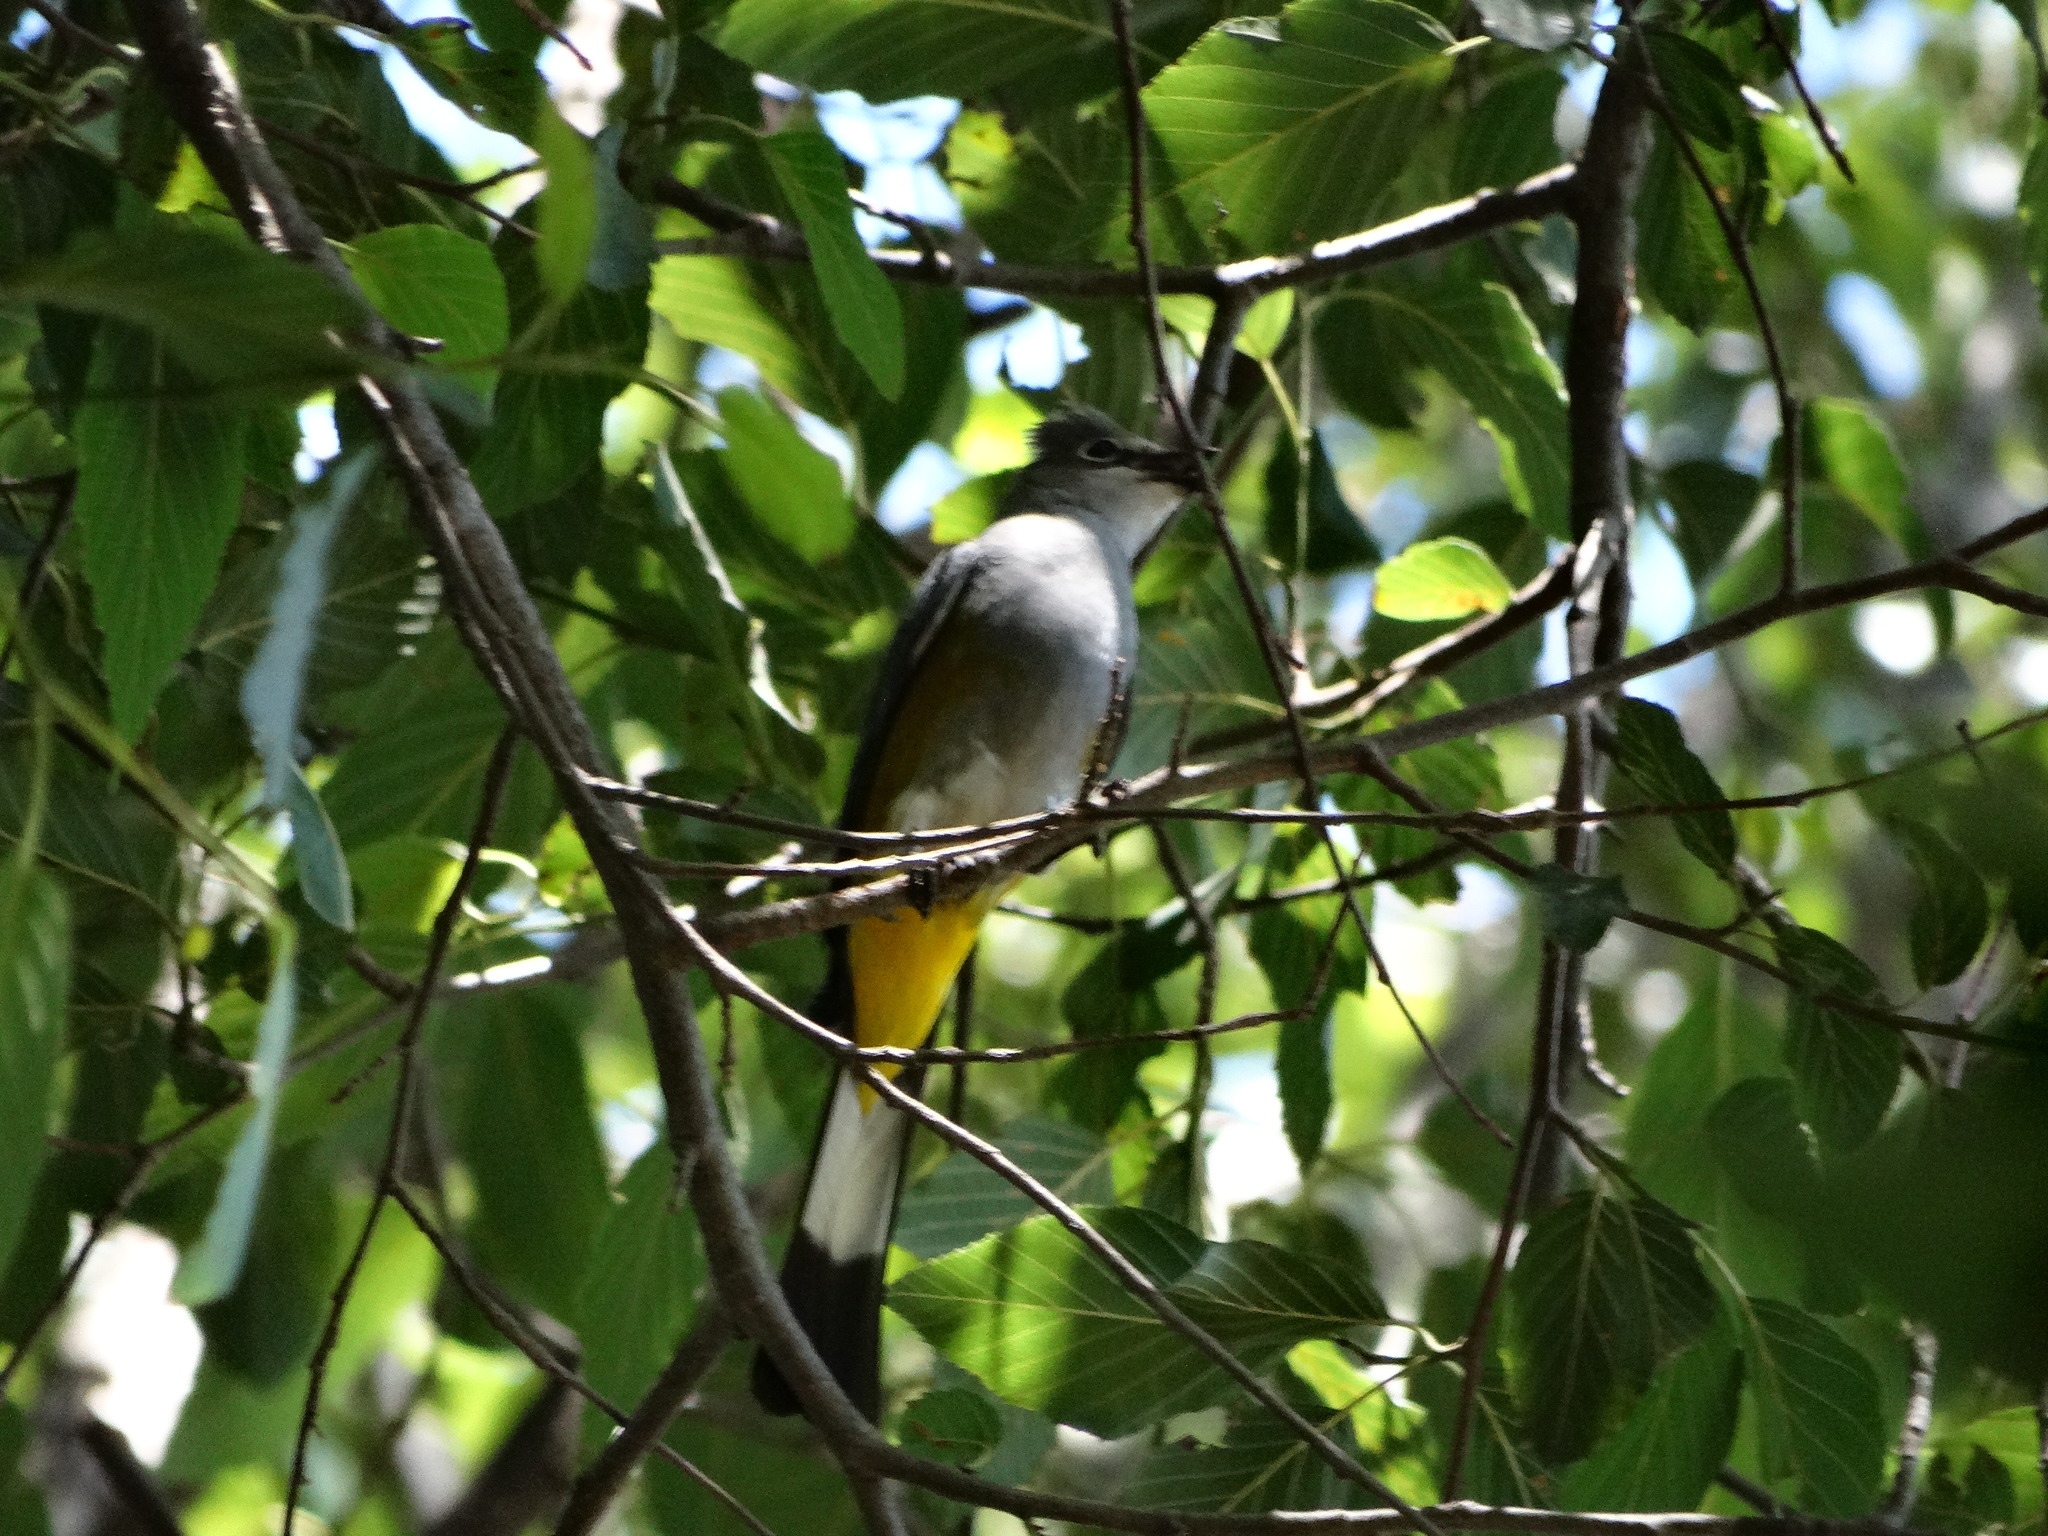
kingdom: Animalia
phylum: Chordata
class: Aves
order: Passeriformes
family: Ptilogonatidae
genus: Ptilogonys
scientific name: Ptilogonys cinereus
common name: Gray silky-flycatcher
